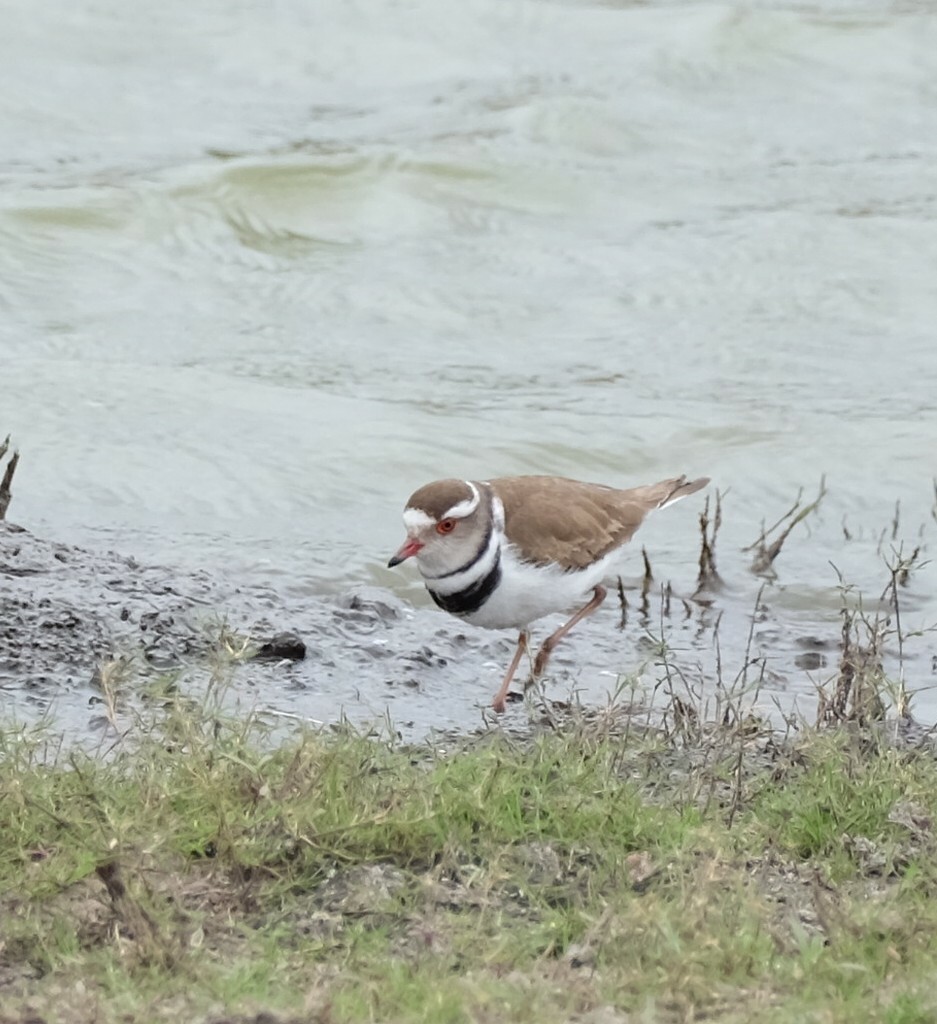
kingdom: Animalia
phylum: Chordata
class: Aves
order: Charadriiformes
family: Charadriidae
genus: Charadrius
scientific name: Charadrius tricollaris
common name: Three-banded plover
